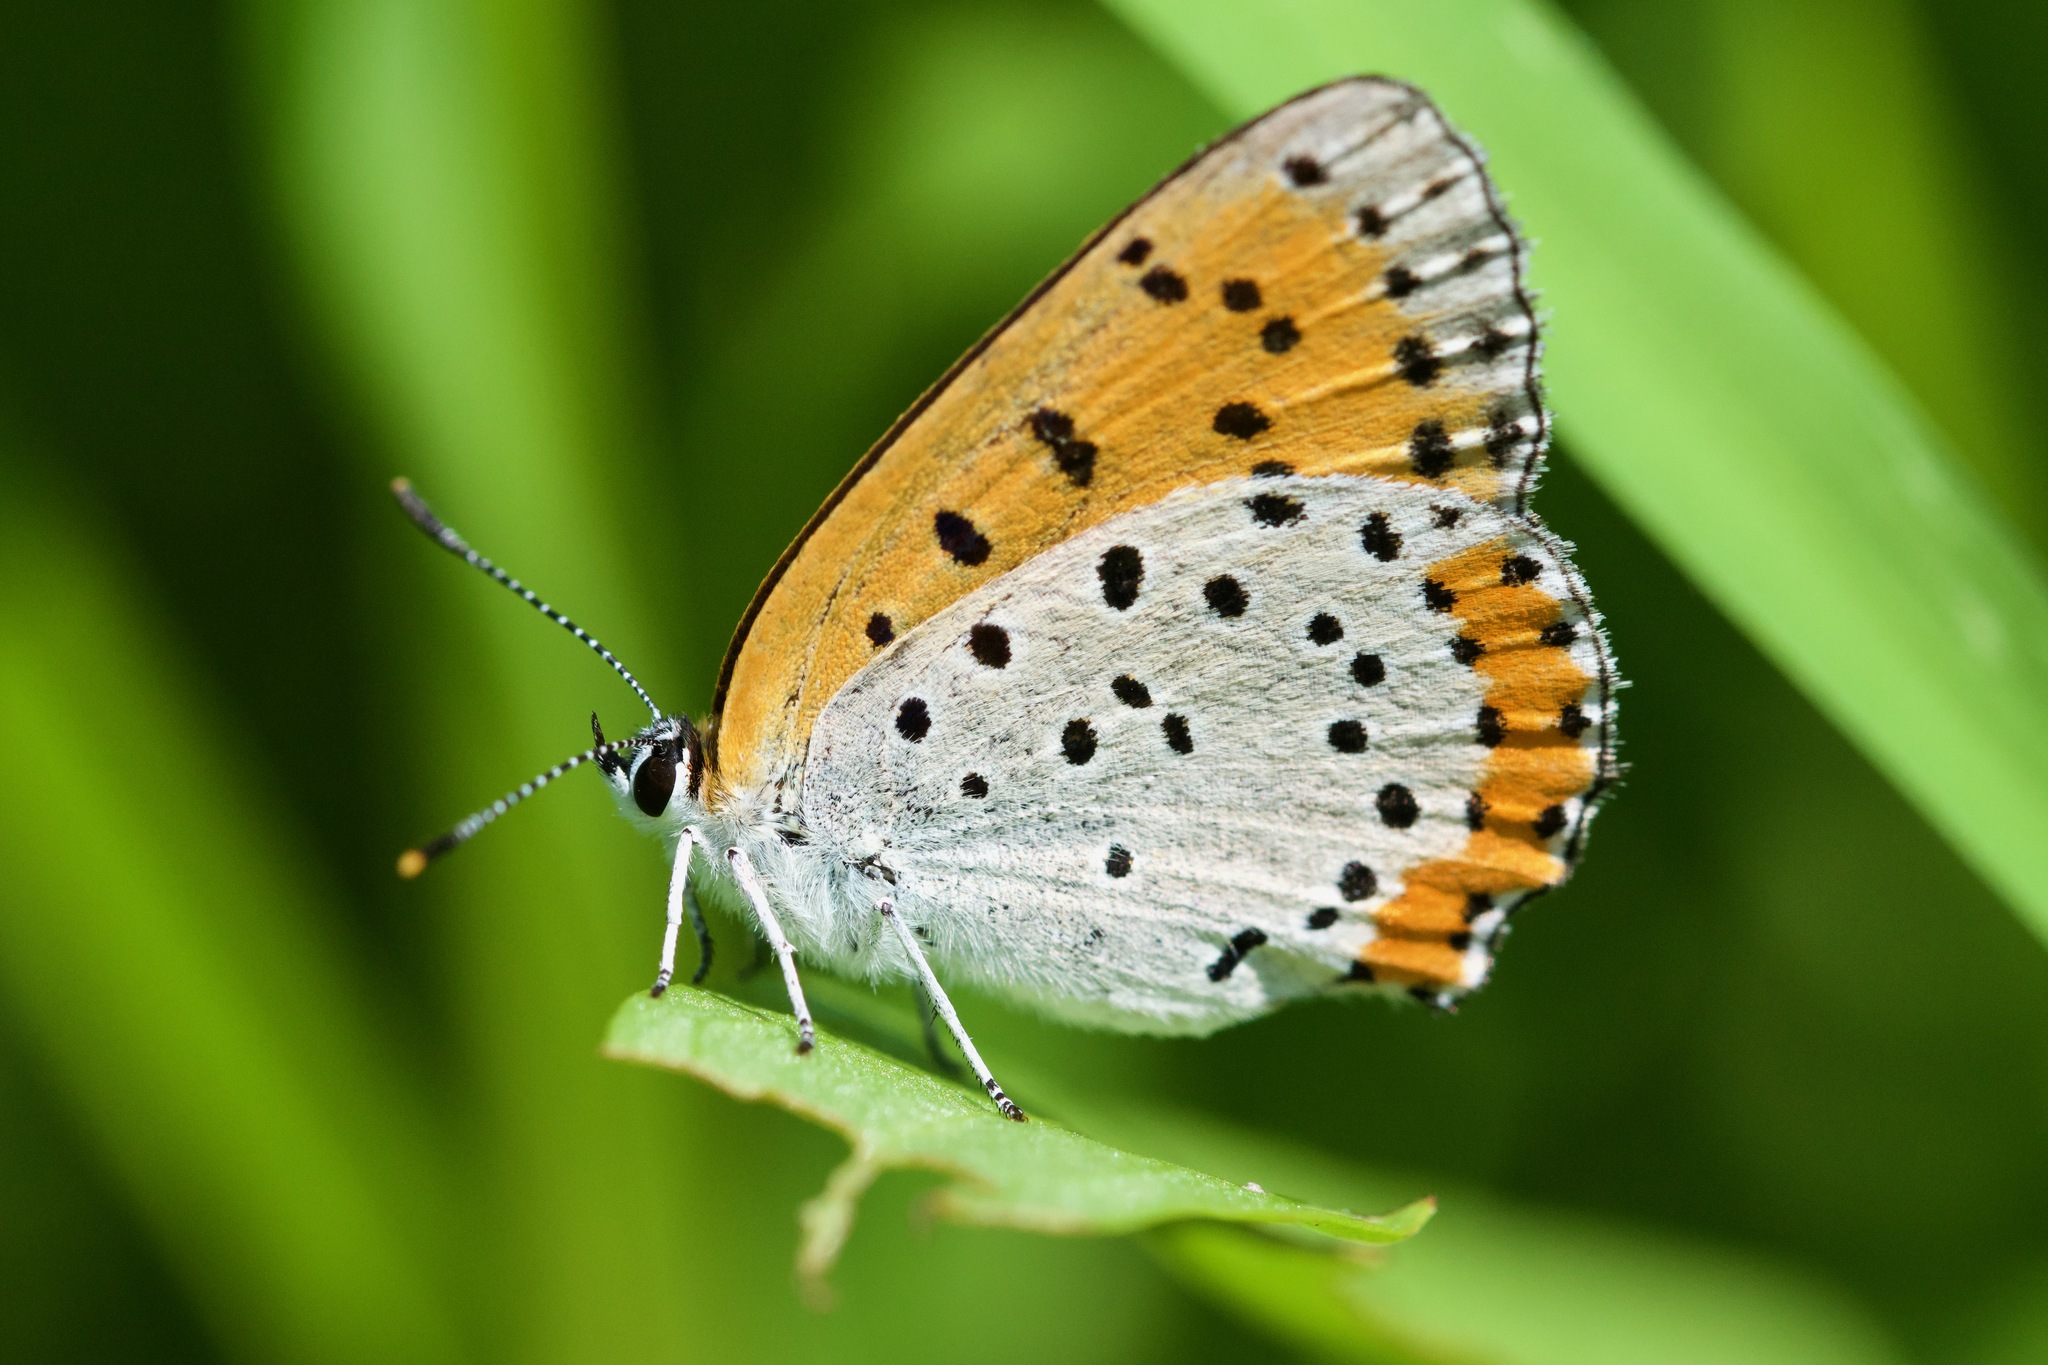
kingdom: Animalia
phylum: Arthropoda
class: Insecta
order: Lepidoptera
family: Lycaenidae
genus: Tharsalea
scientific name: Tharsalea hyllus
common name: Bronze copper
